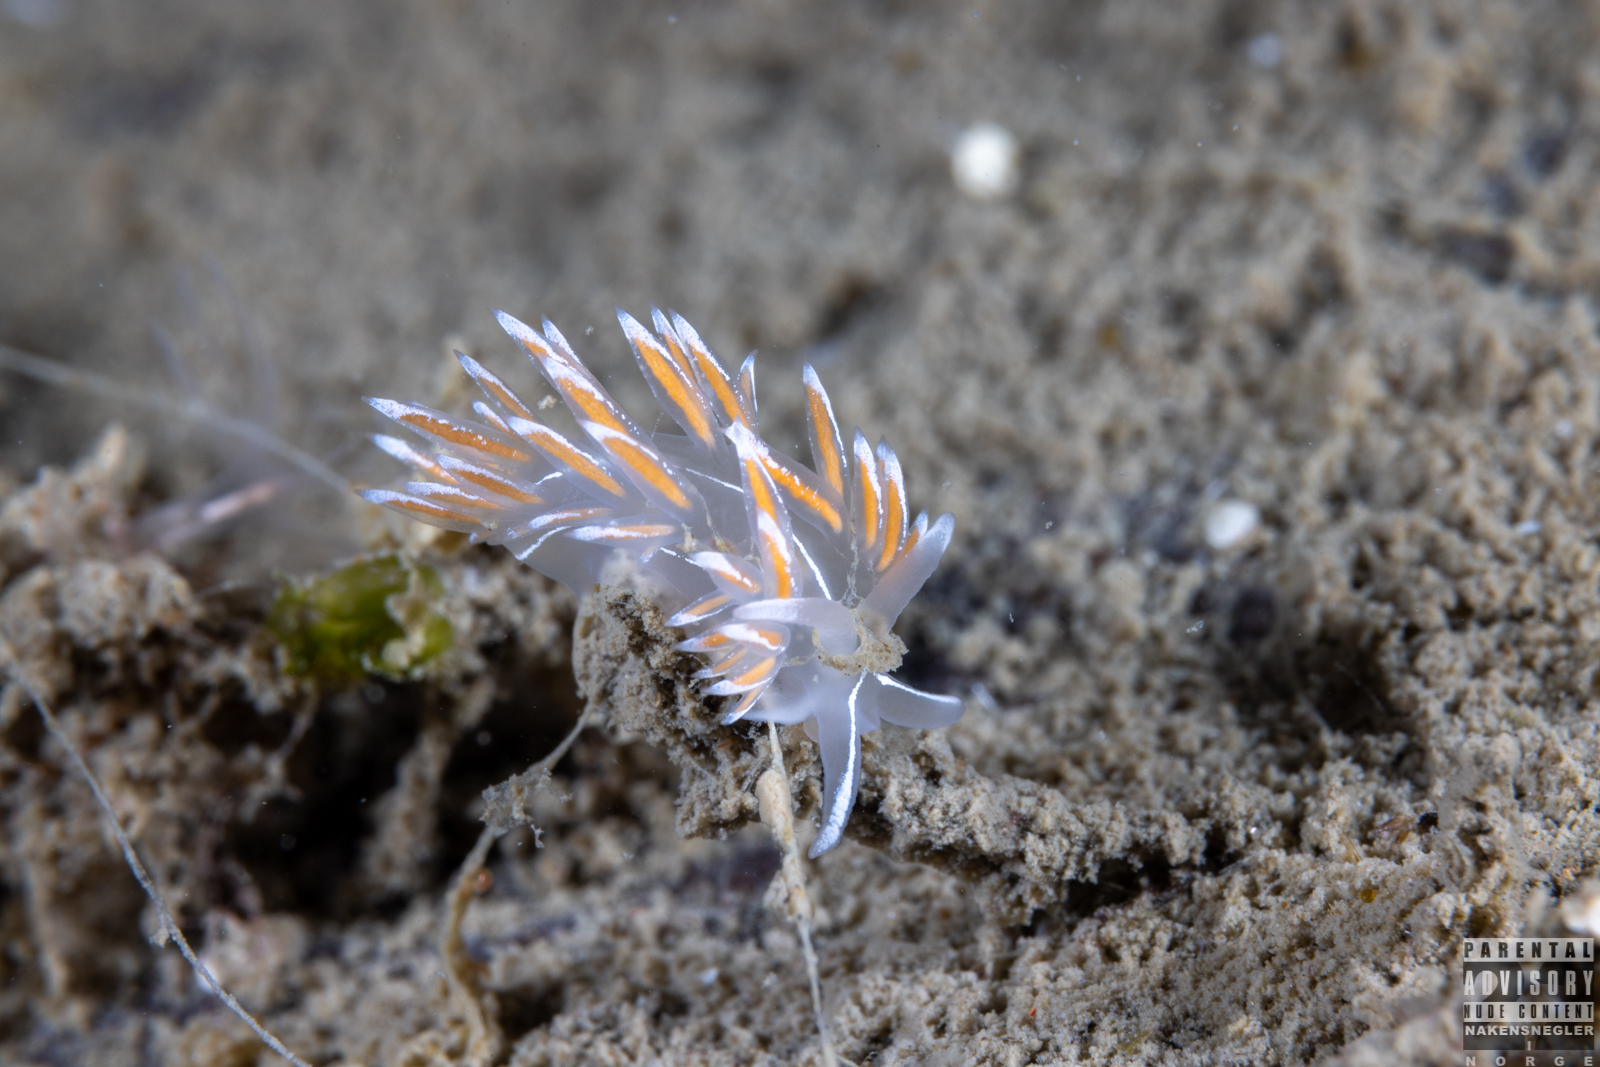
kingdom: Animalia
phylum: Mollusca
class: Gastropoda
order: Nudibranchia
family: Coryphellidae
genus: Coryphella
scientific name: Coryphella lineata
